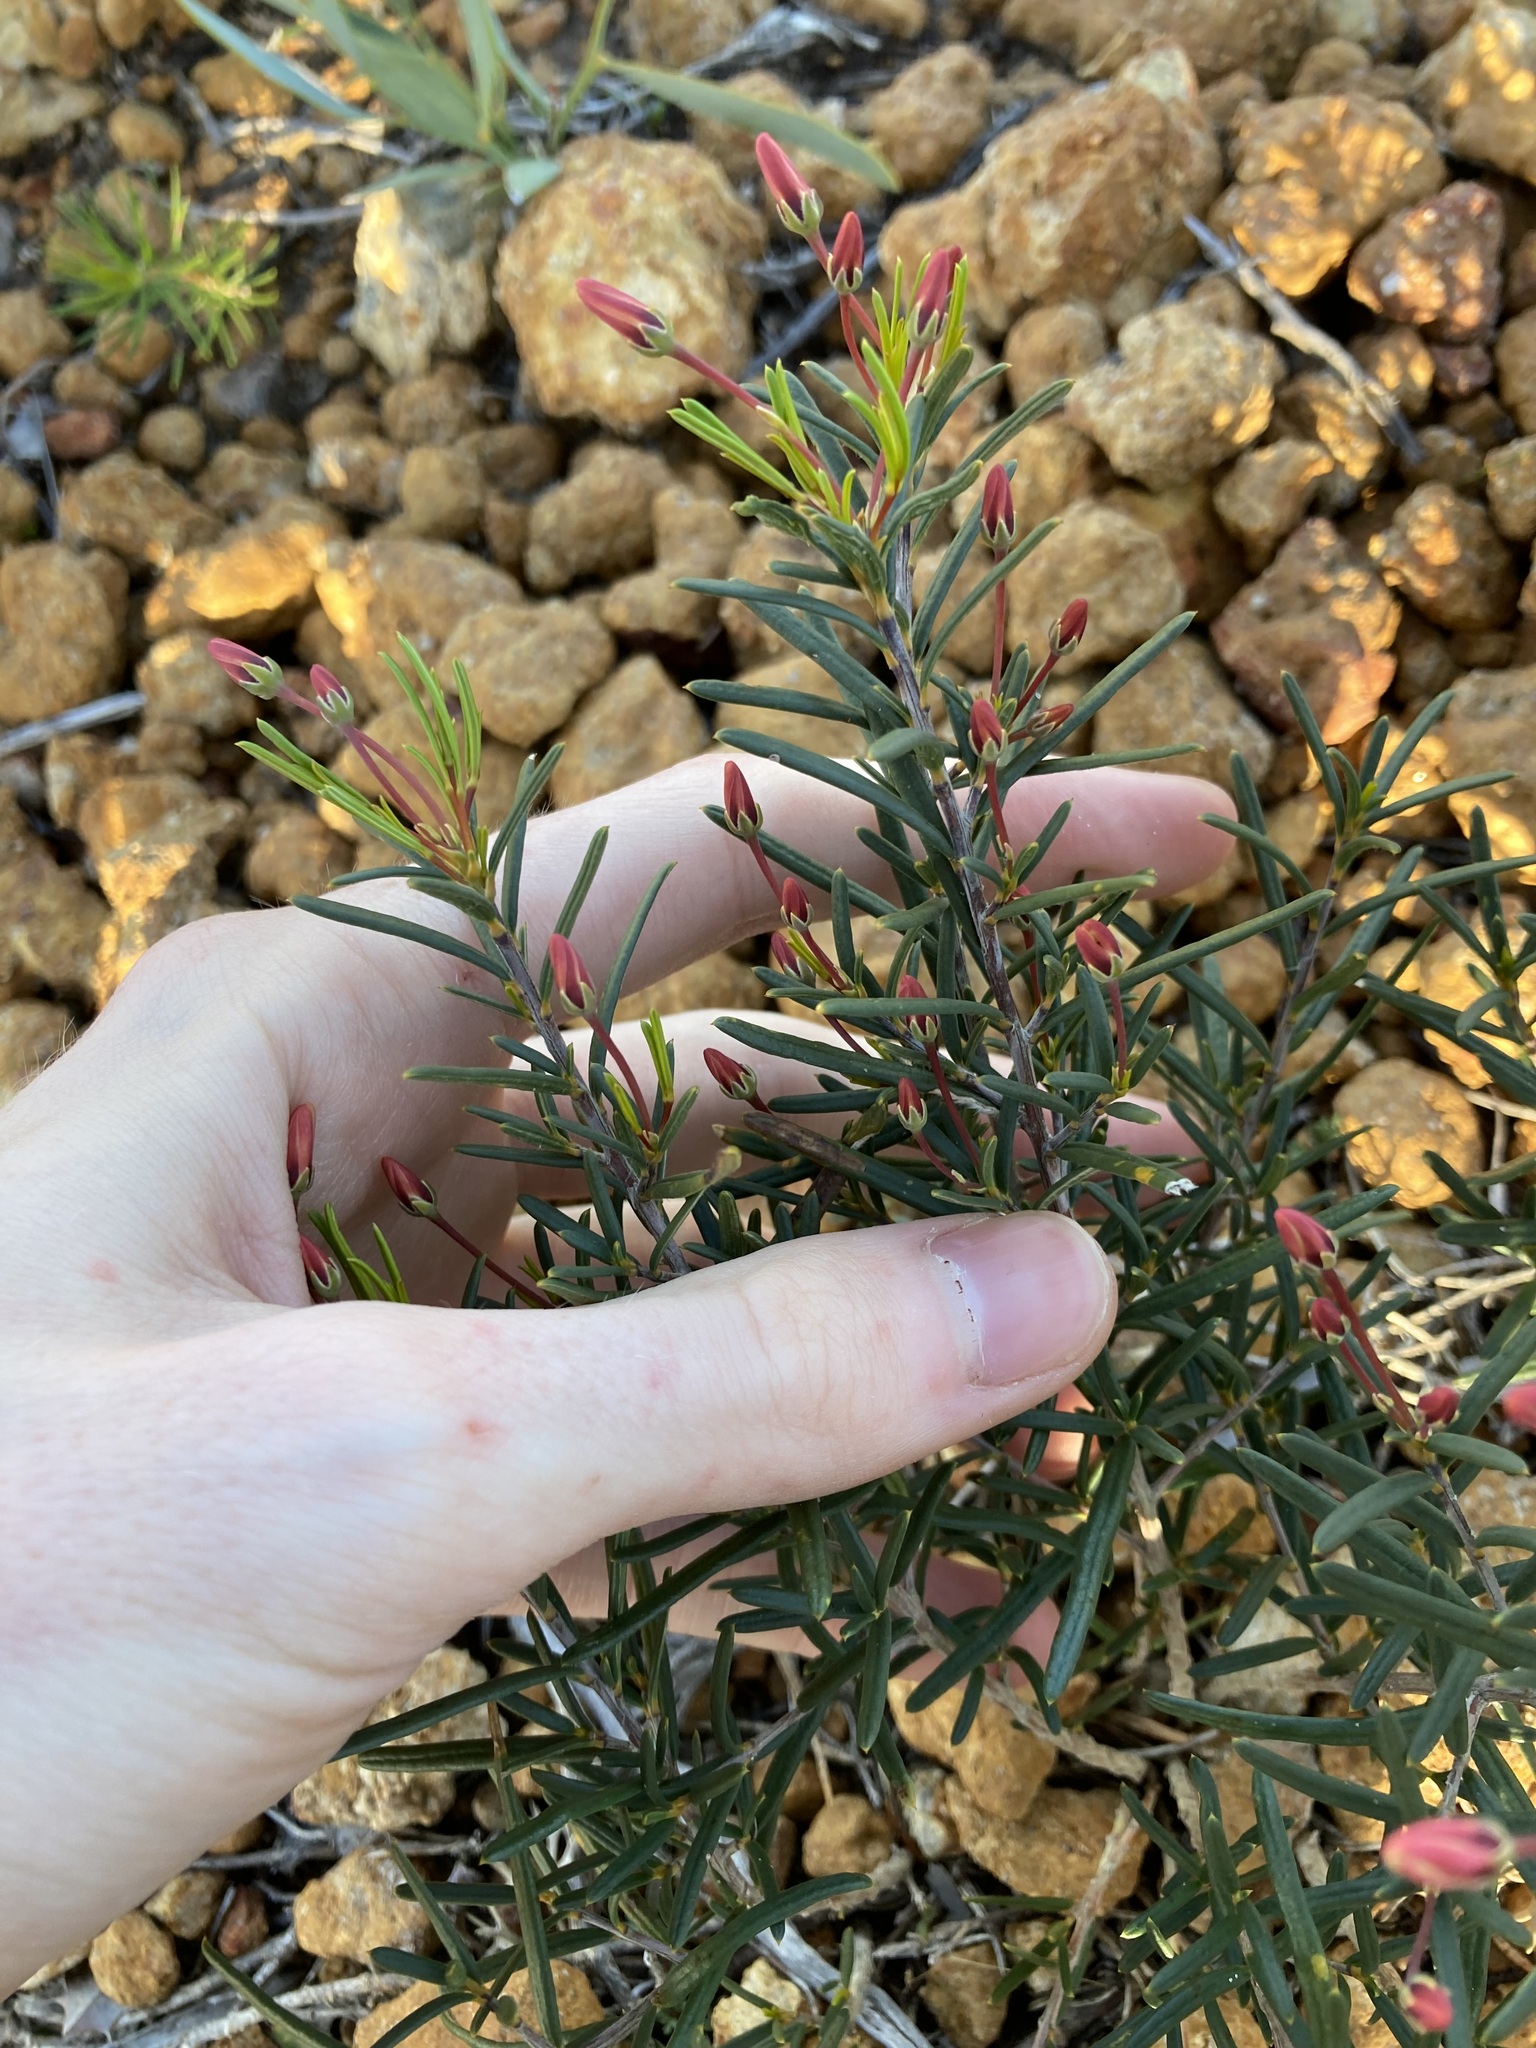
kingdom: Plantae
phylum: Tracheophyta
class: Magnoliopsida
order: Malpighiales
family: Euphorbiaceae
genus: Ricinocarpos
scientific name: Ricinocarpos undulatus
